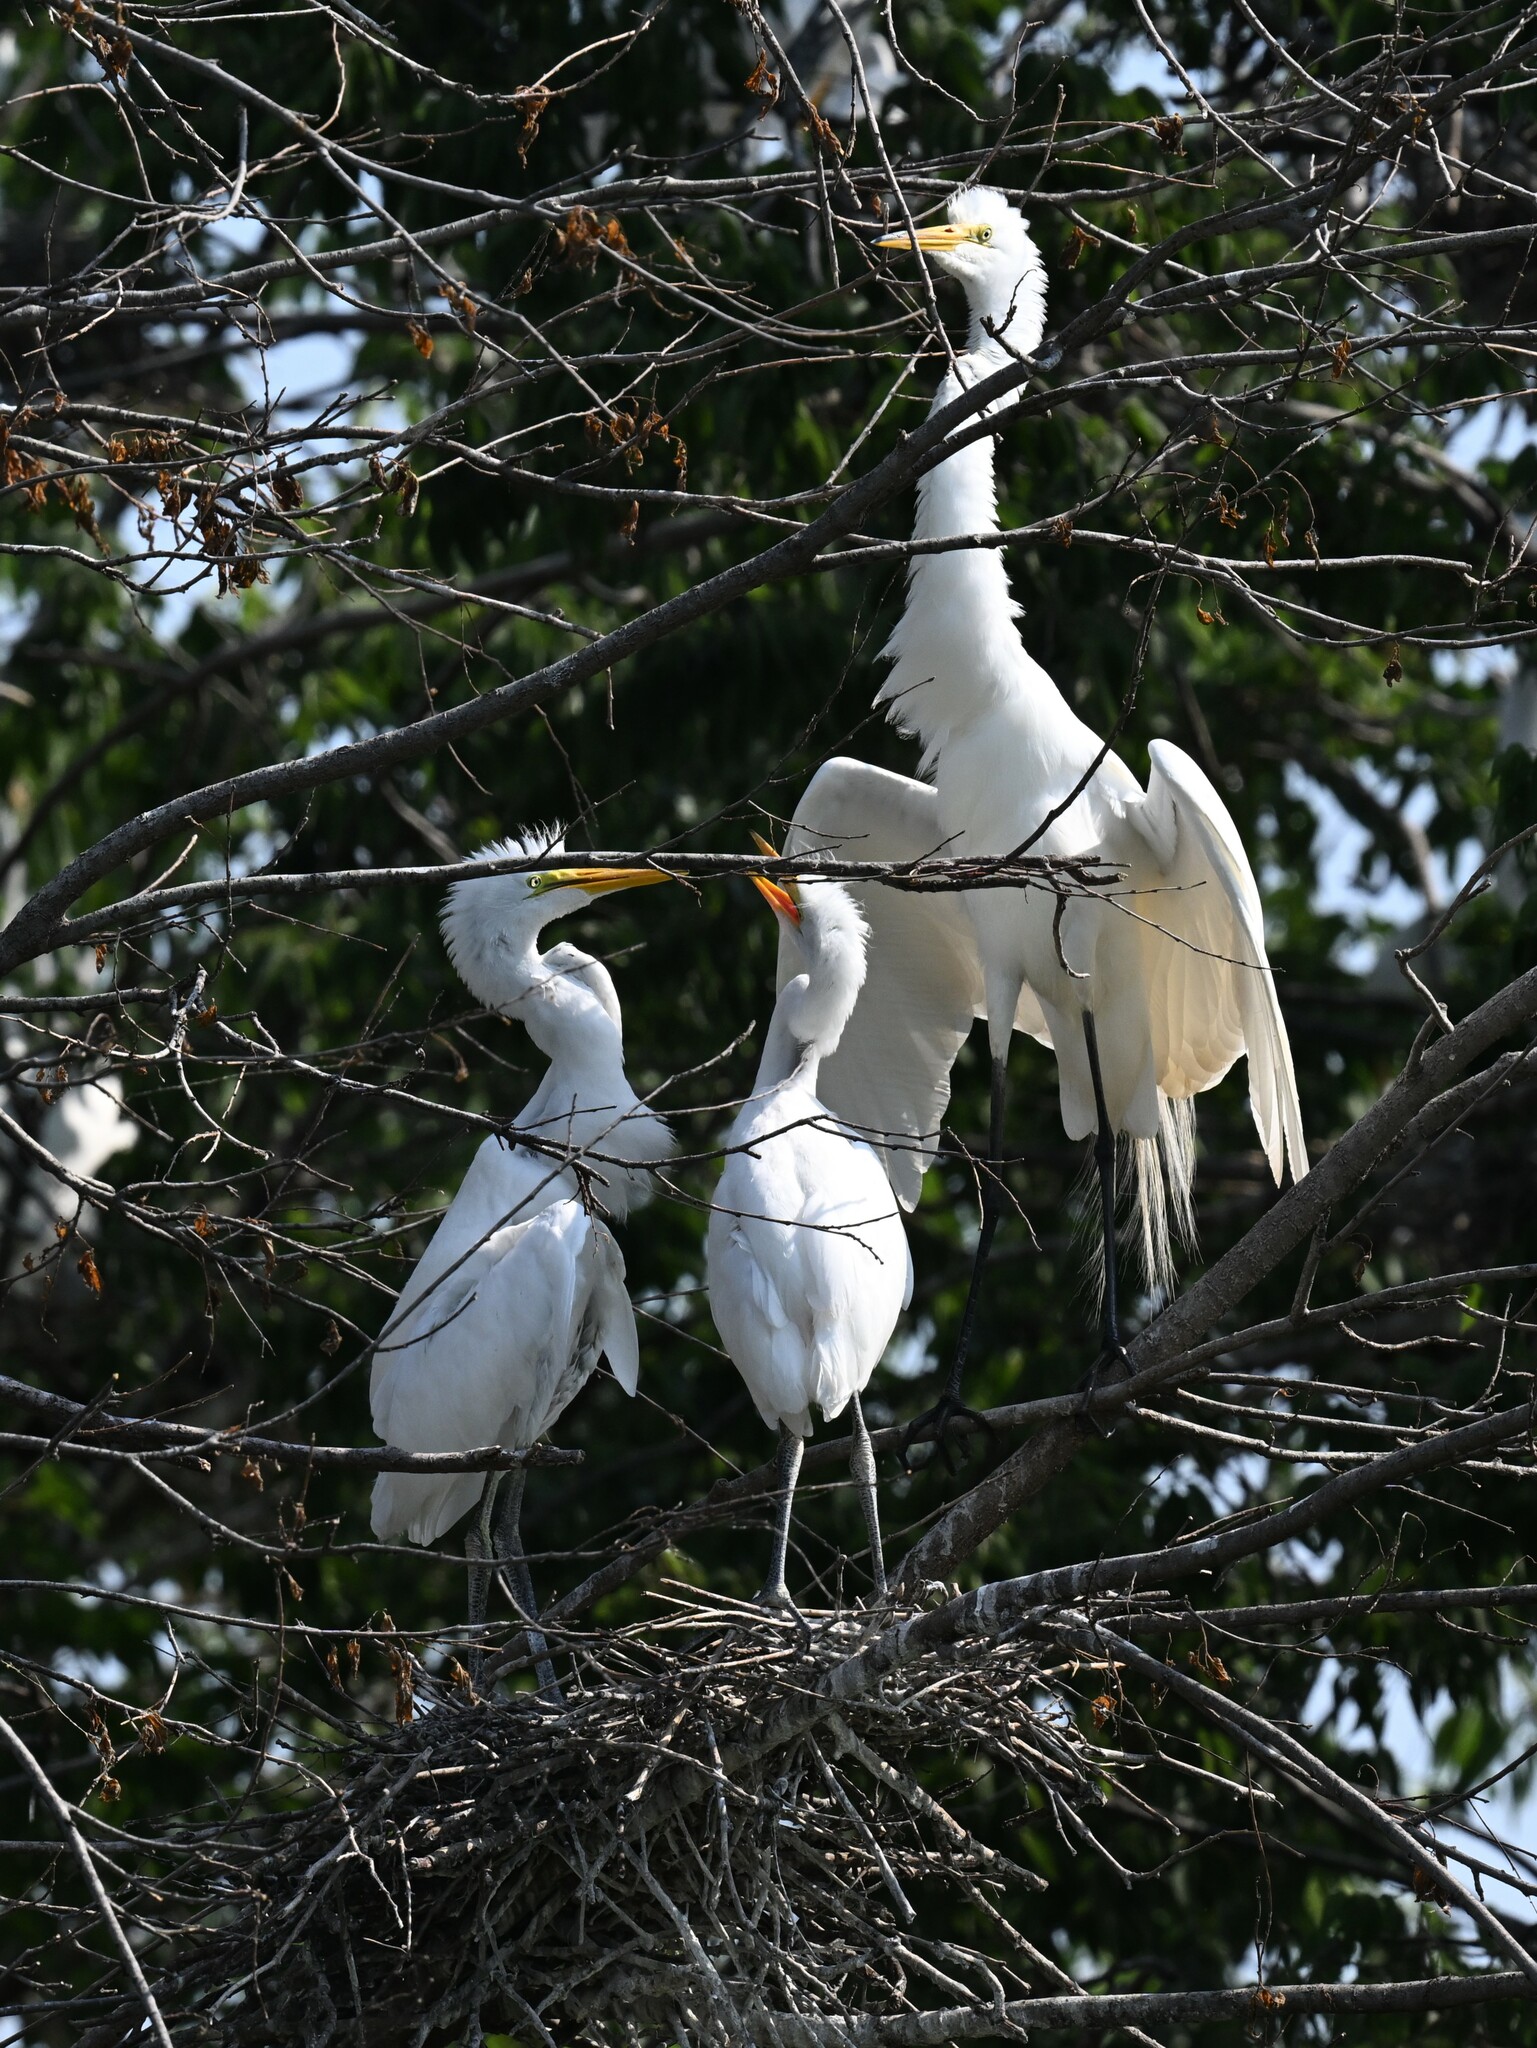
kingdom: Animalia
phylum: Chordata
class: Aves
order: Pelecaniformes
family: Ardeidae
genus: Ardea
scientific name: Ardea alba
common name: Great egret
